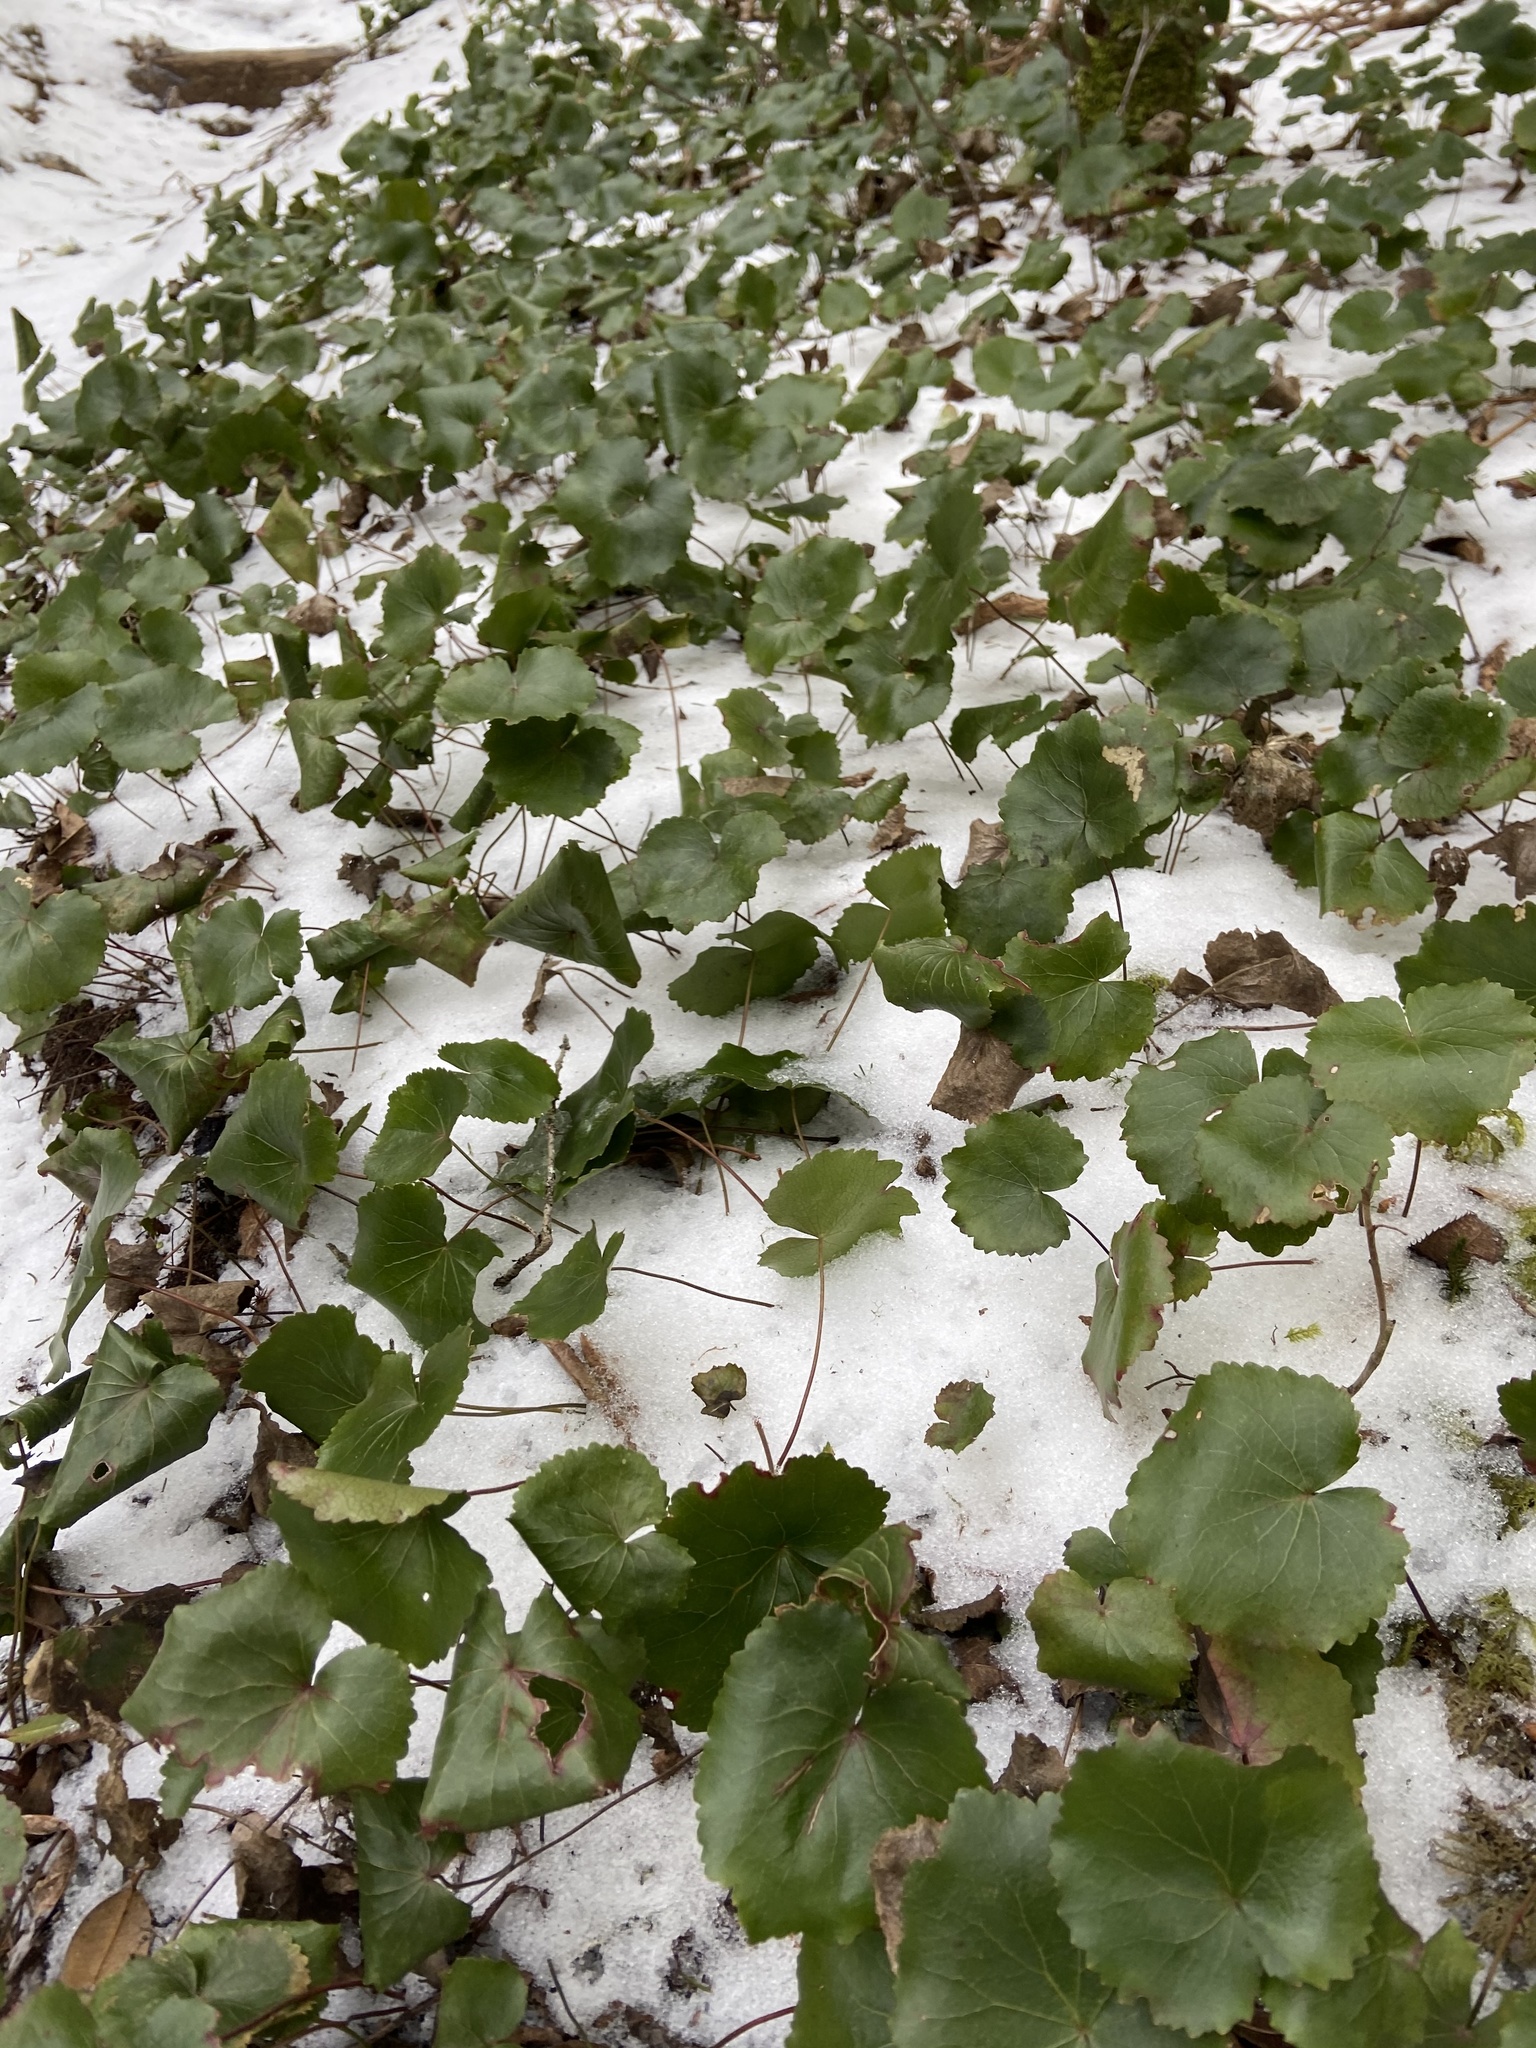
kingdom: Plantae
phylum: Tracheophyta
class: Magnoliopsida
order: Ericales
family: Diapensiaceae
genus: Galax
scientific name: Galax urceolata
